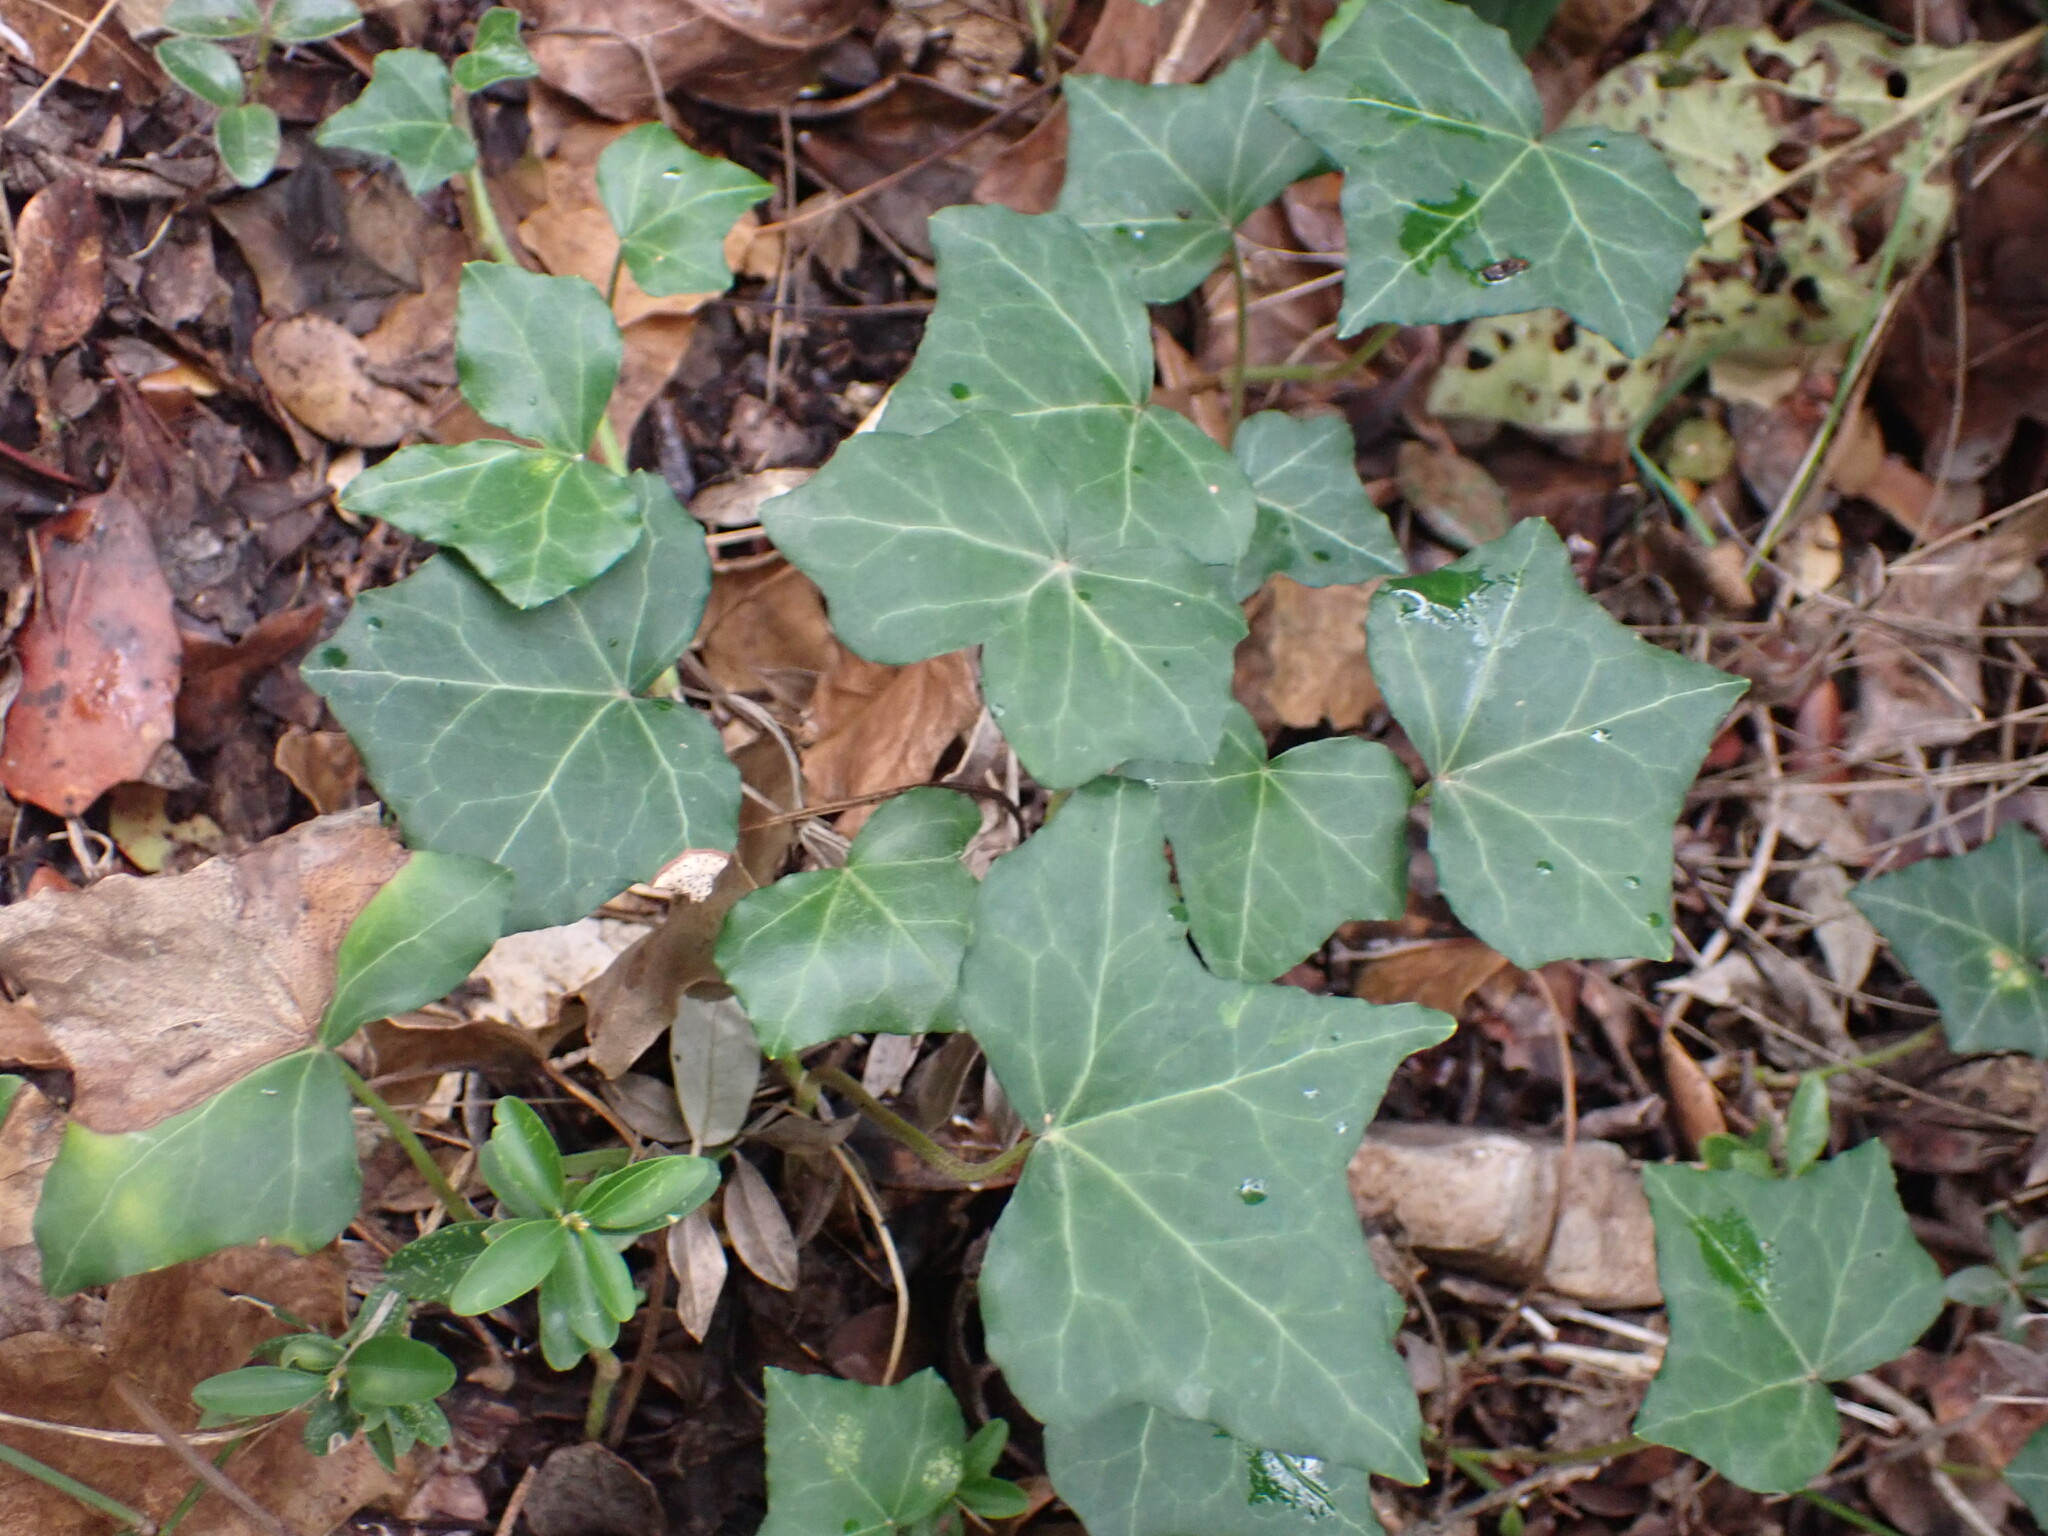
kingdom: Plantae
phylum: Tracheophyta
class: Magnoliopsida
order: Apiales
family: Araliaceae
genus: Hedera
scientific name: Hedera helix
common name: Ivy
